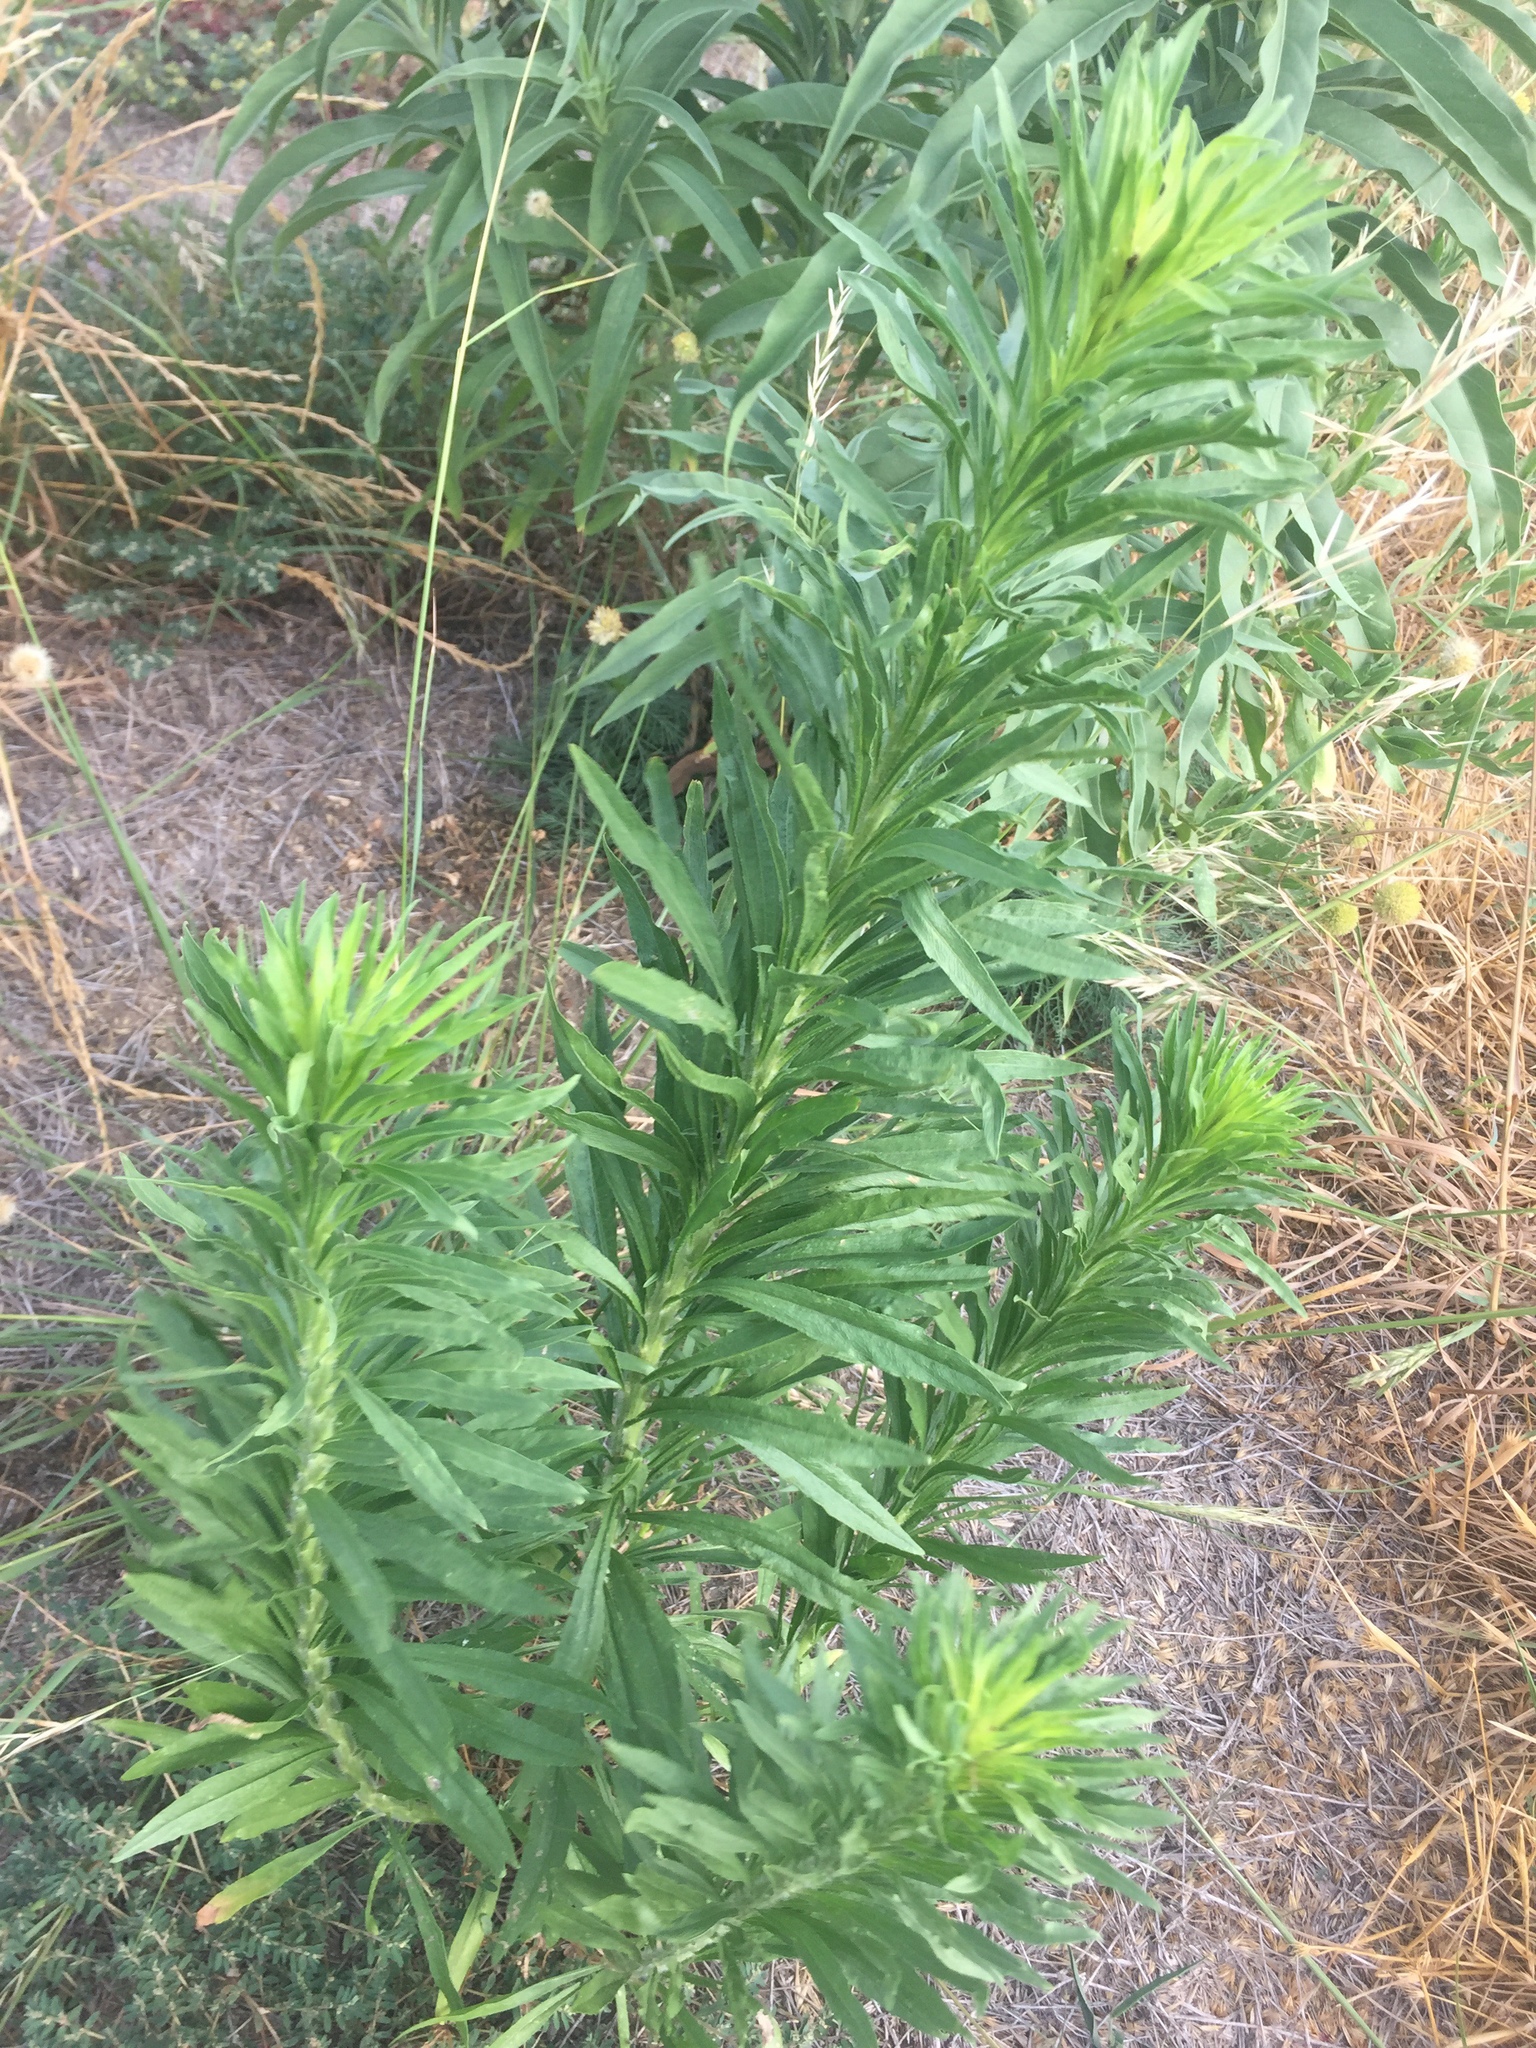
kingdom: Plantae
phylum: Tracheophyta
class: Magnoliopsida
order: Asterales
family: Asteraceae
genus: Erigeron
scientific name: Erigeron canadensis
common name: Canadian fleabane
